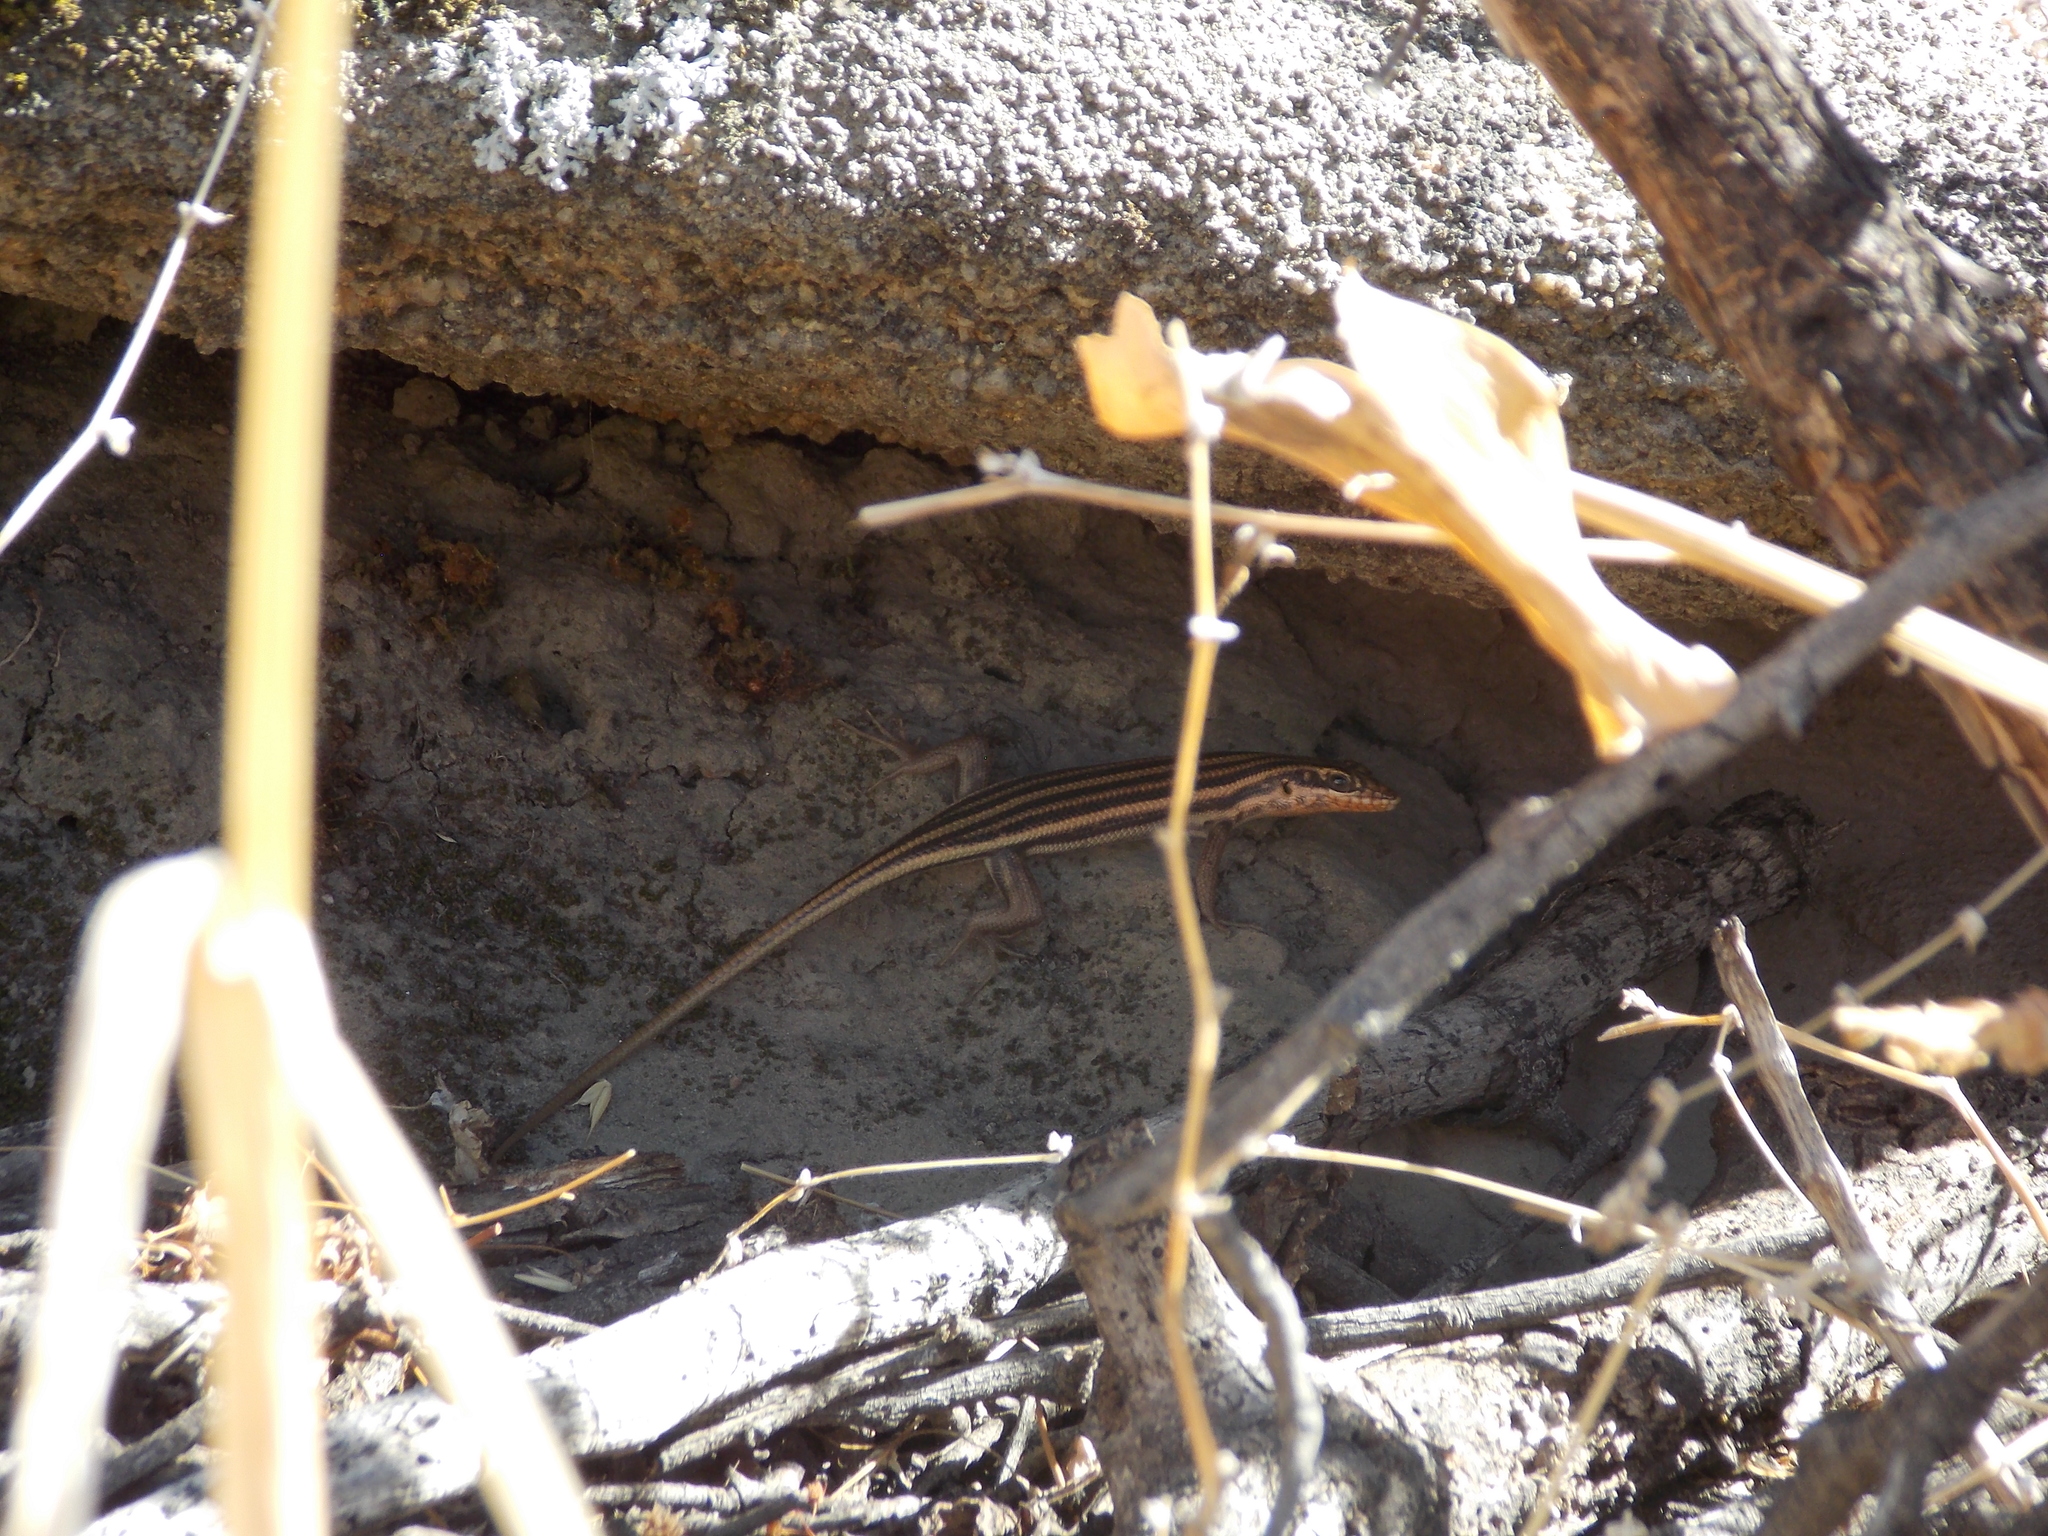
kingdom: Animalia
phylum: Chordata
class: Squamata
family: Scincidae
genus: Trachylepis
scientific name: Trachylepis sulcata
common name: Western rock skink
